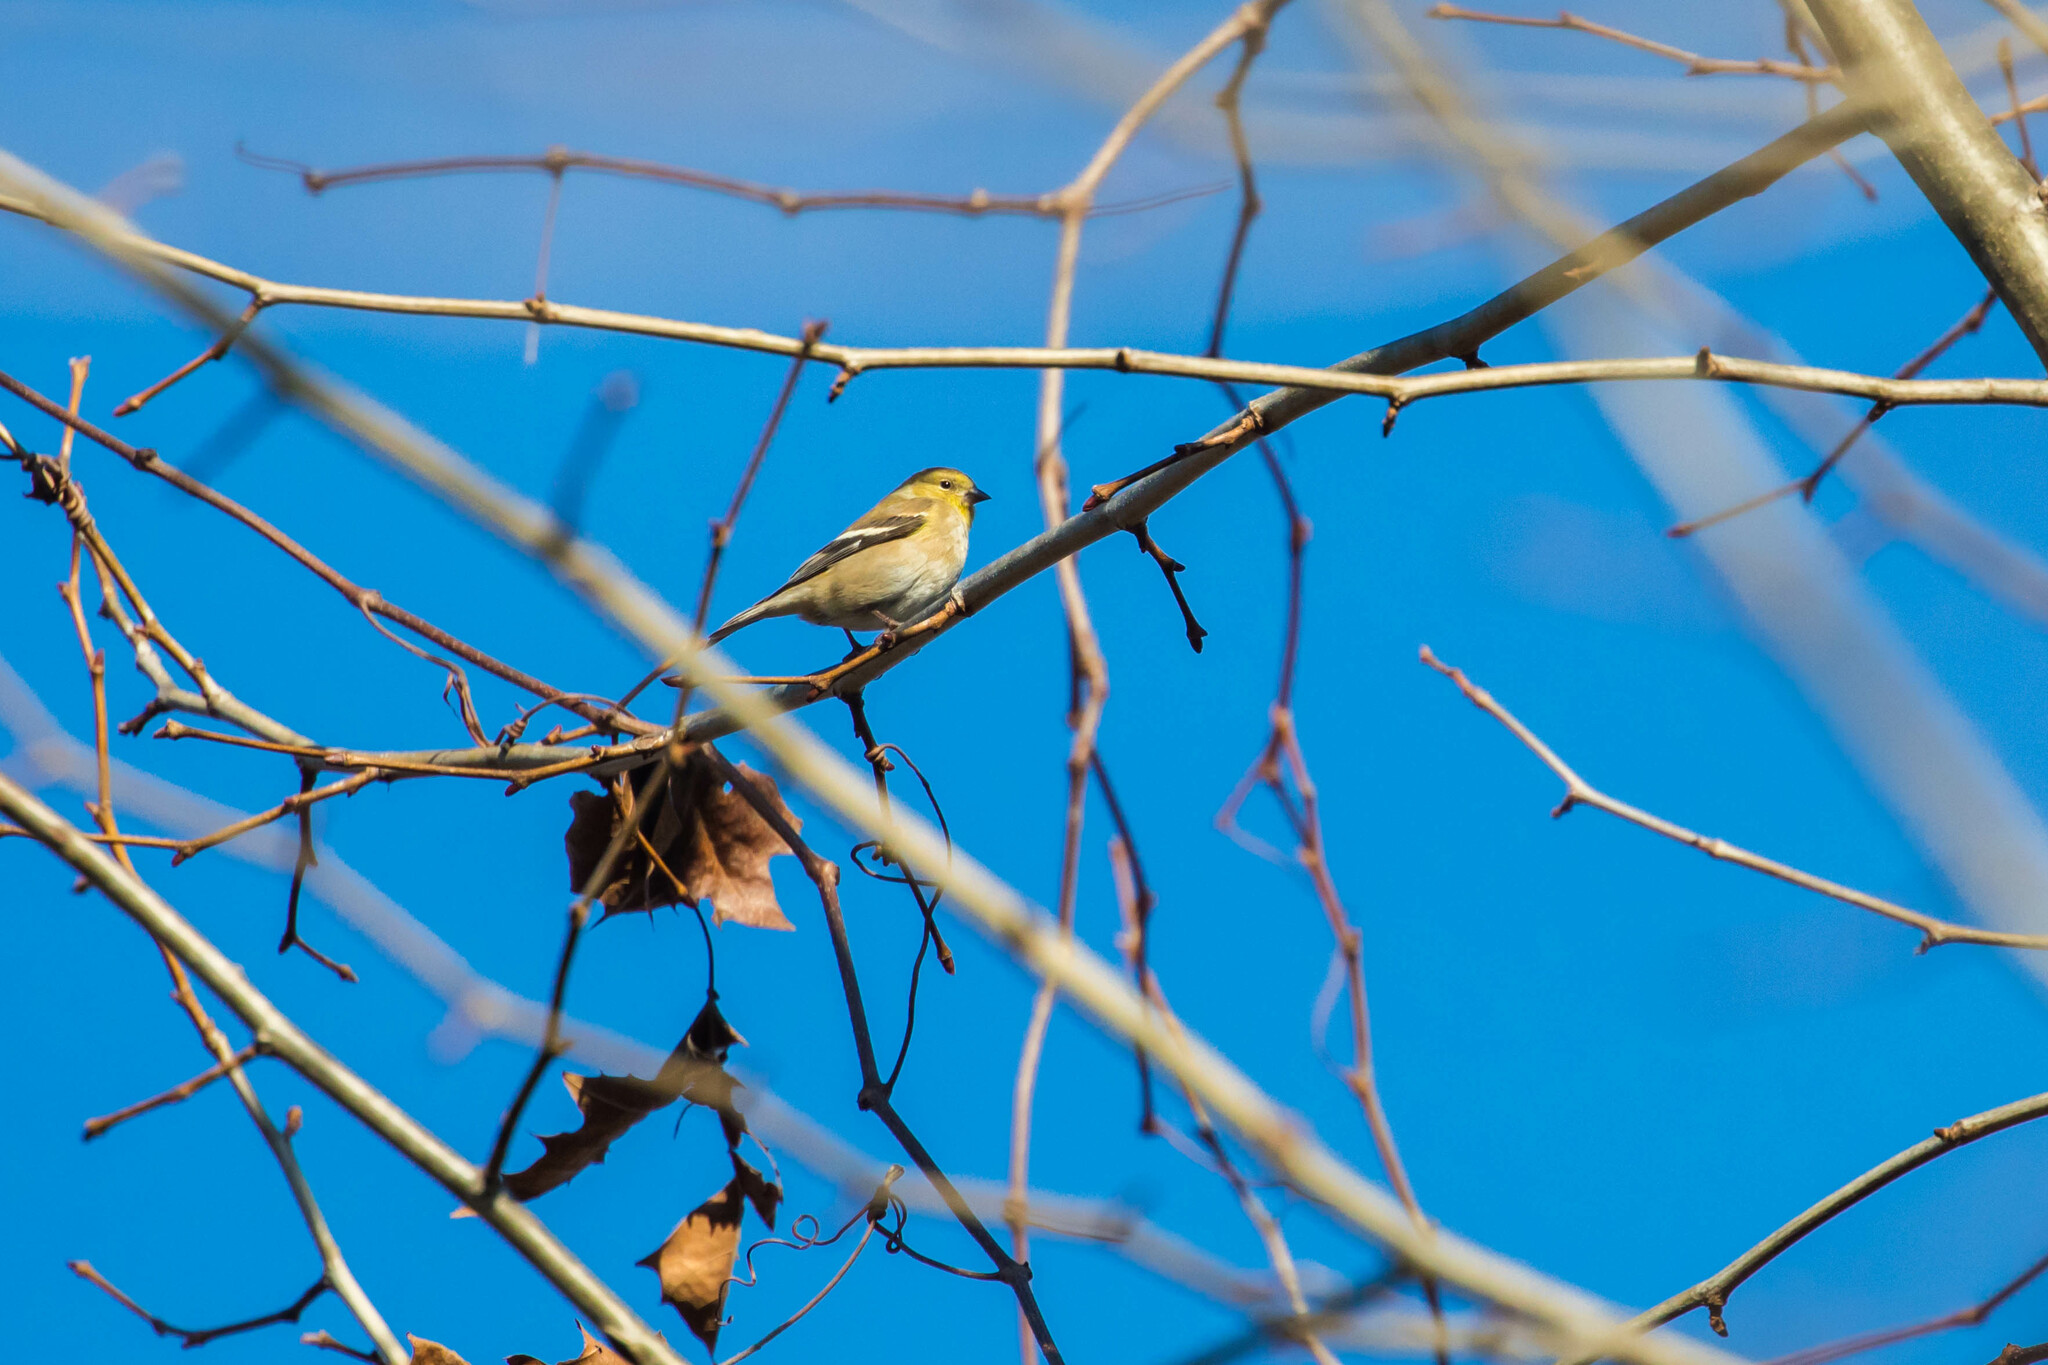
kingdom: Animalia
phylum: Chordata
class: Aves
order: Passeriformes
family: Fringillidae
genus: Spinus
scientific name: Spinus tristis
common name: American goldfinch
